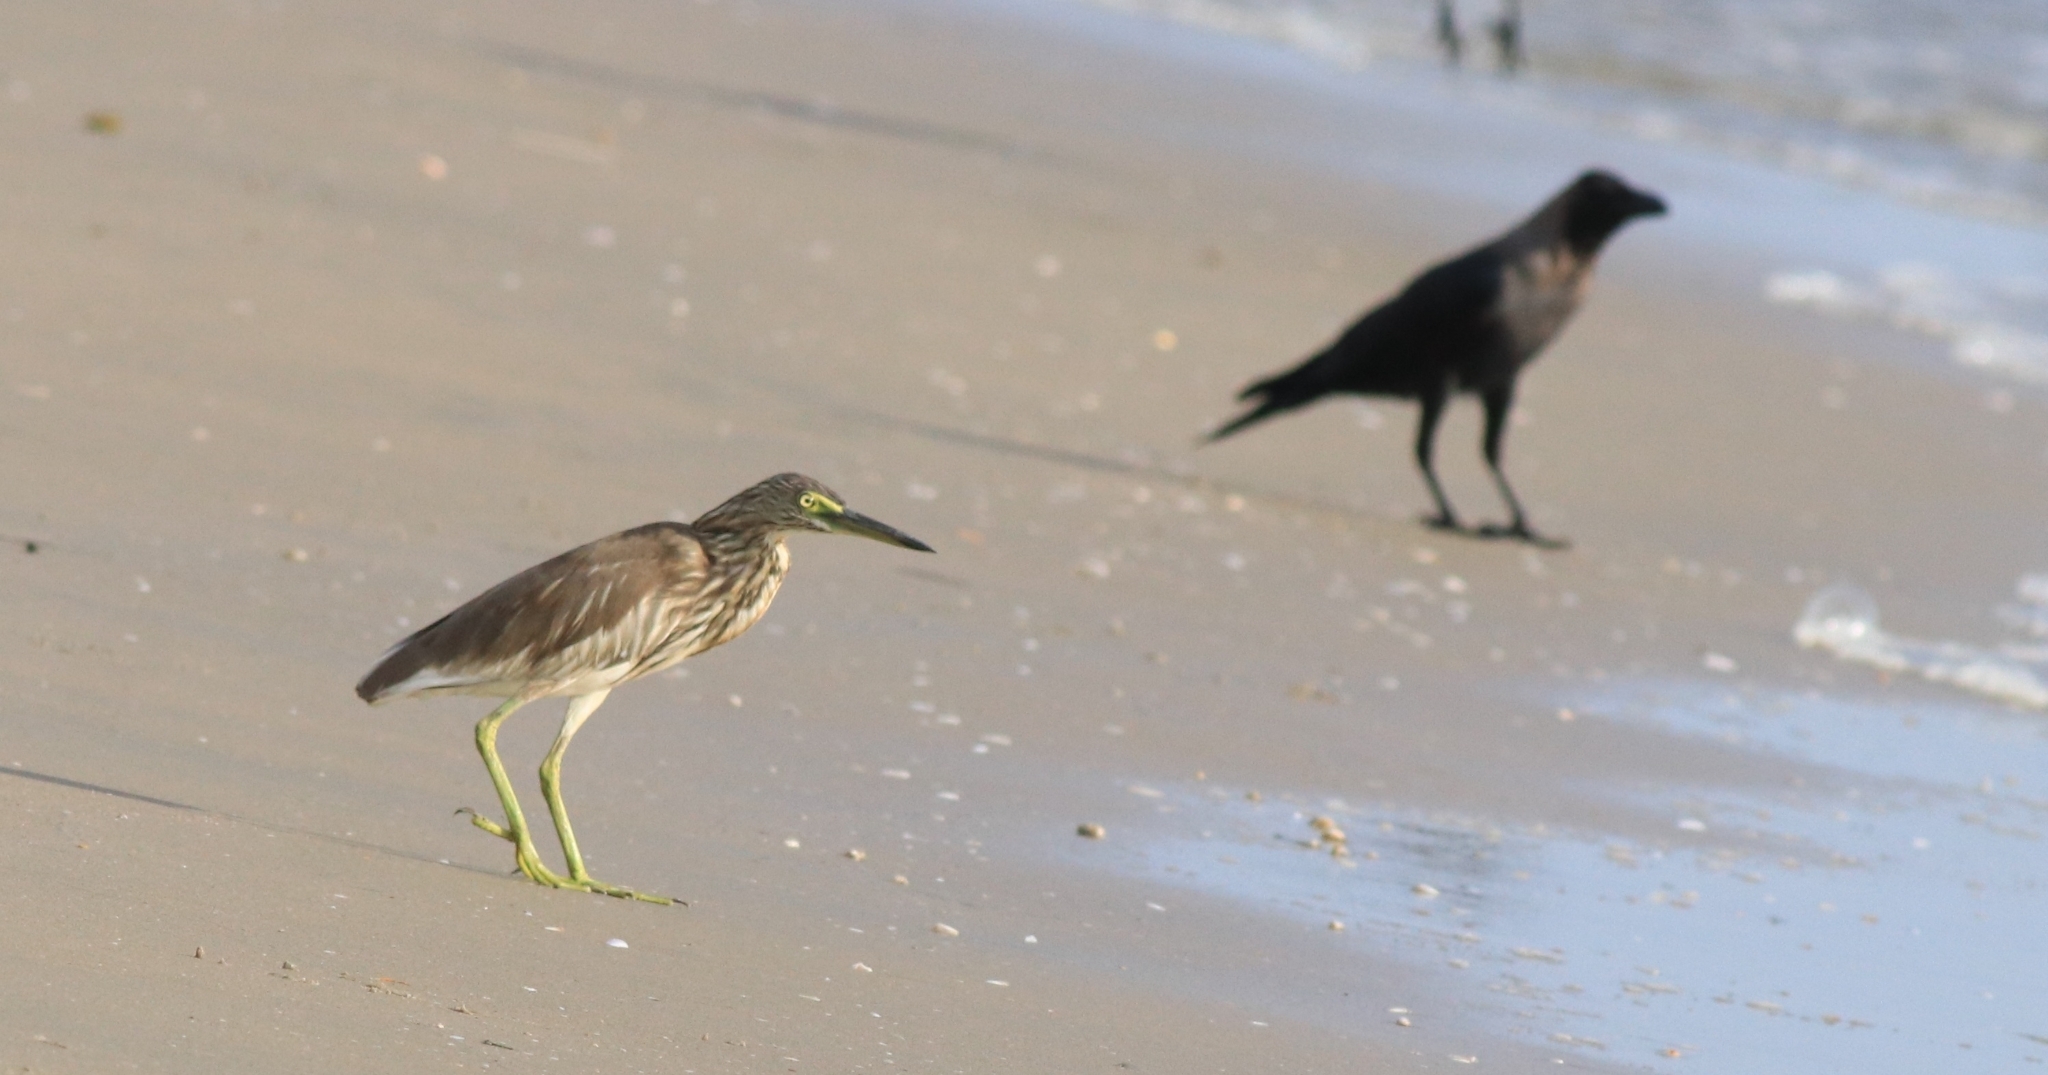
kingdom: Animalia
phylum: Chordata
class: Aves
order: Pelecaniformes
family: Ardeidae
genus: Ardeola
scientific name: Ardeola grayii
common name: Indian pond heron
